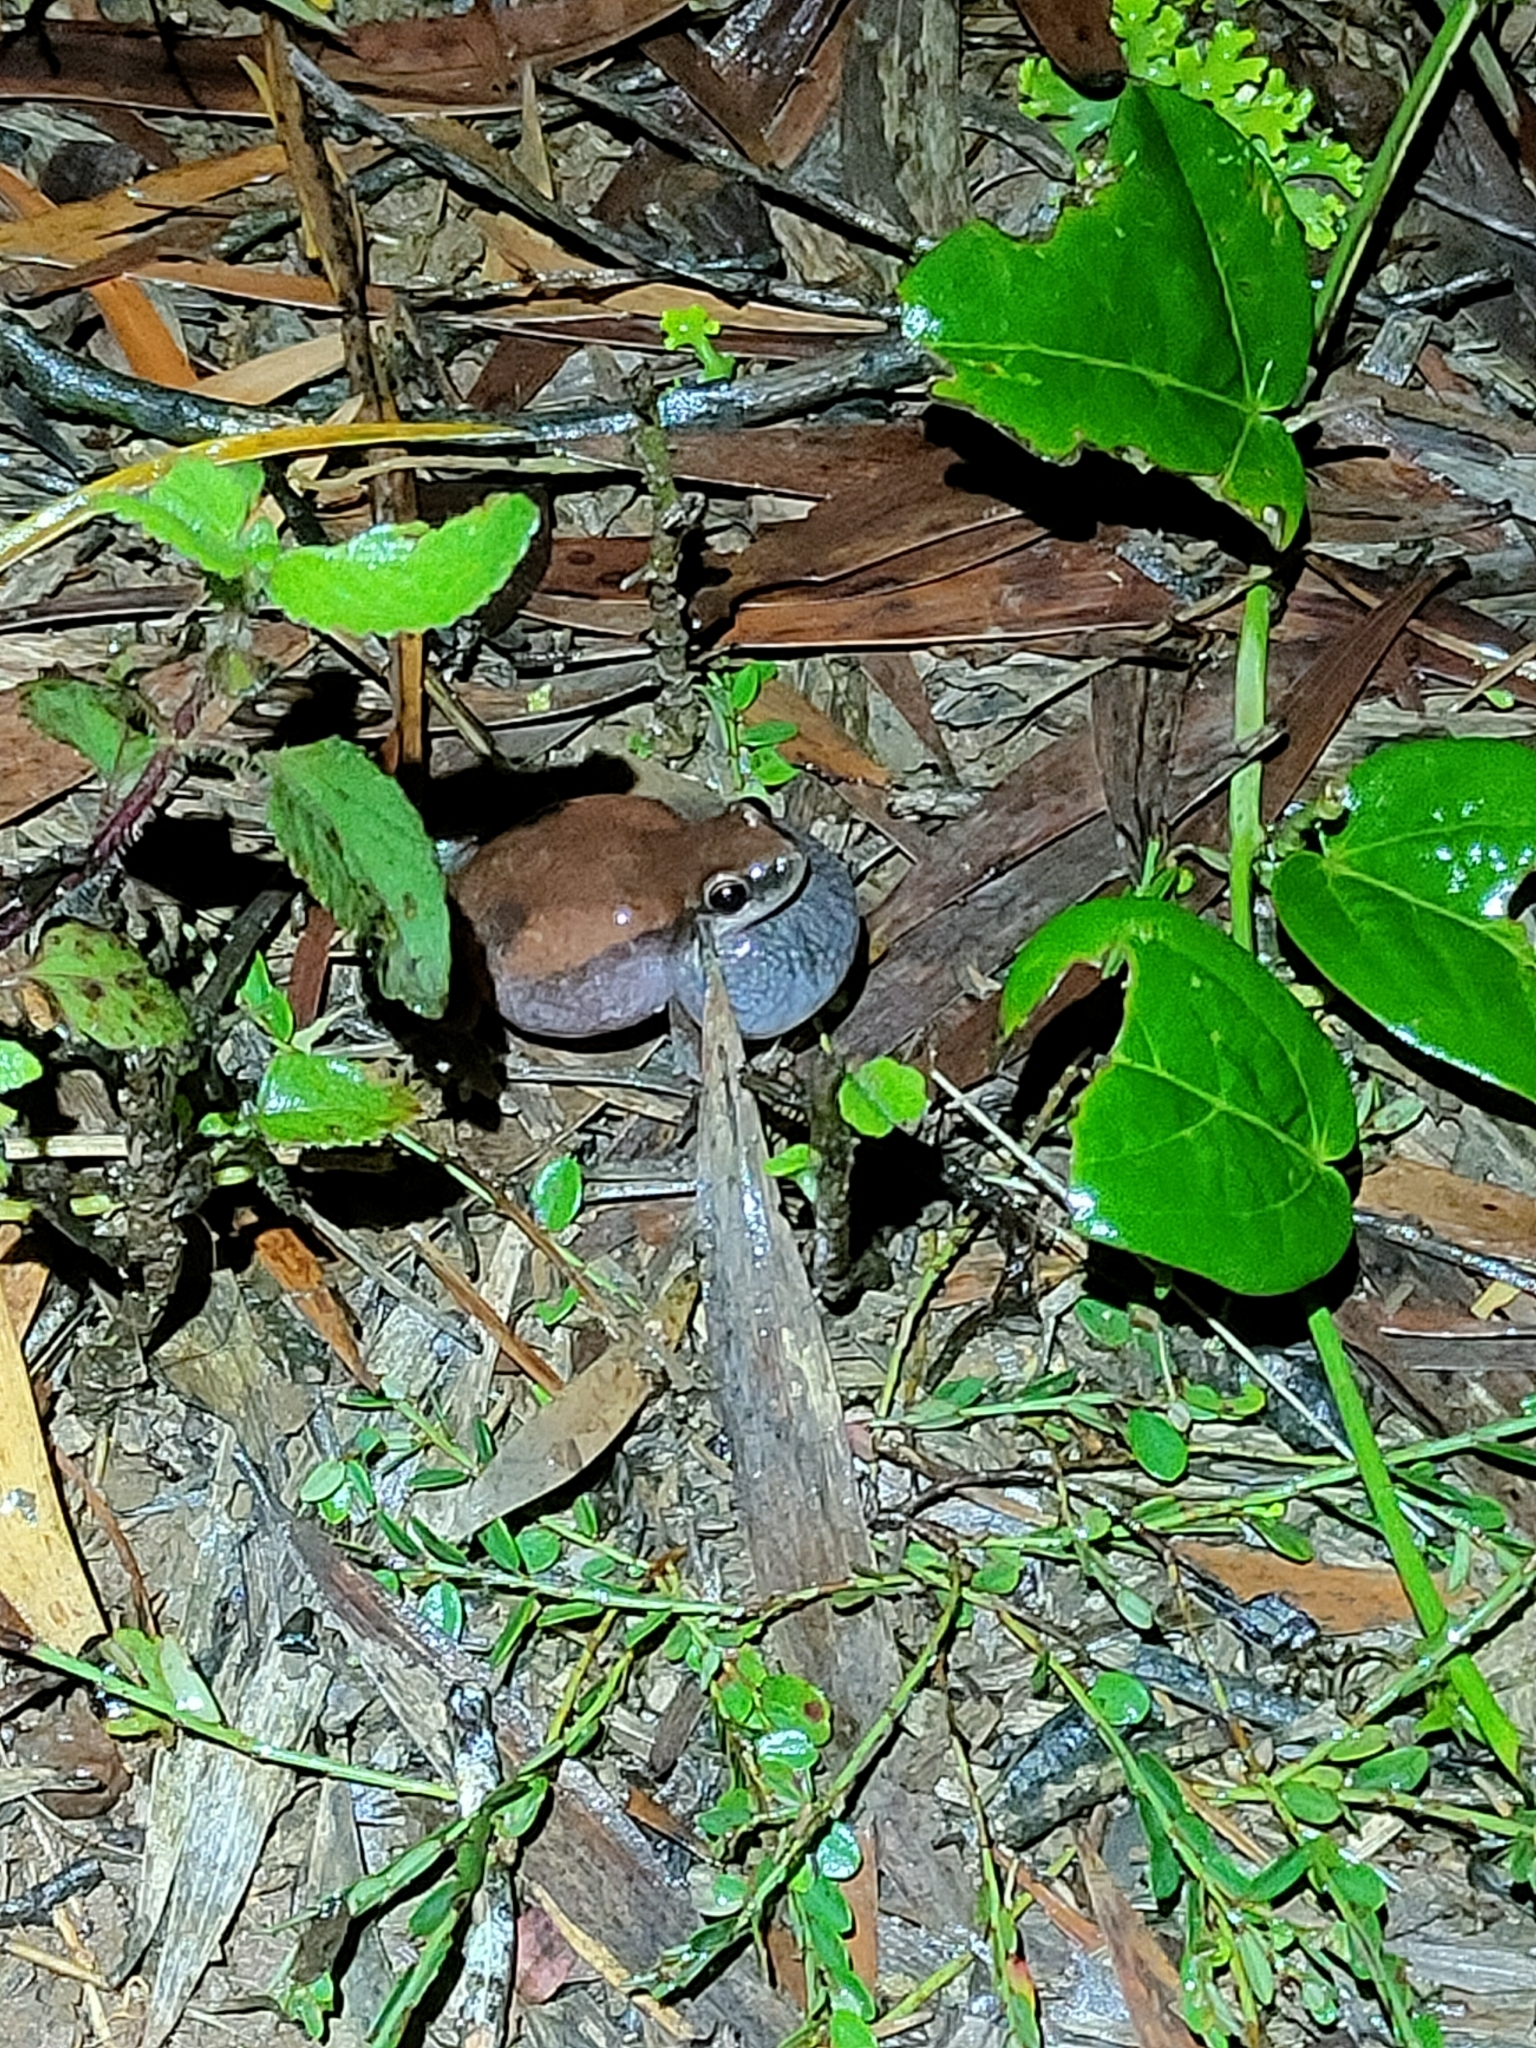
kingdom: Animalia
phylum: Chordata
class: Amphibia
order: Anura
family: Pelodryadidae
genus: Litoria
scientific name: Litoria rubella
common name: Desert tree frog
